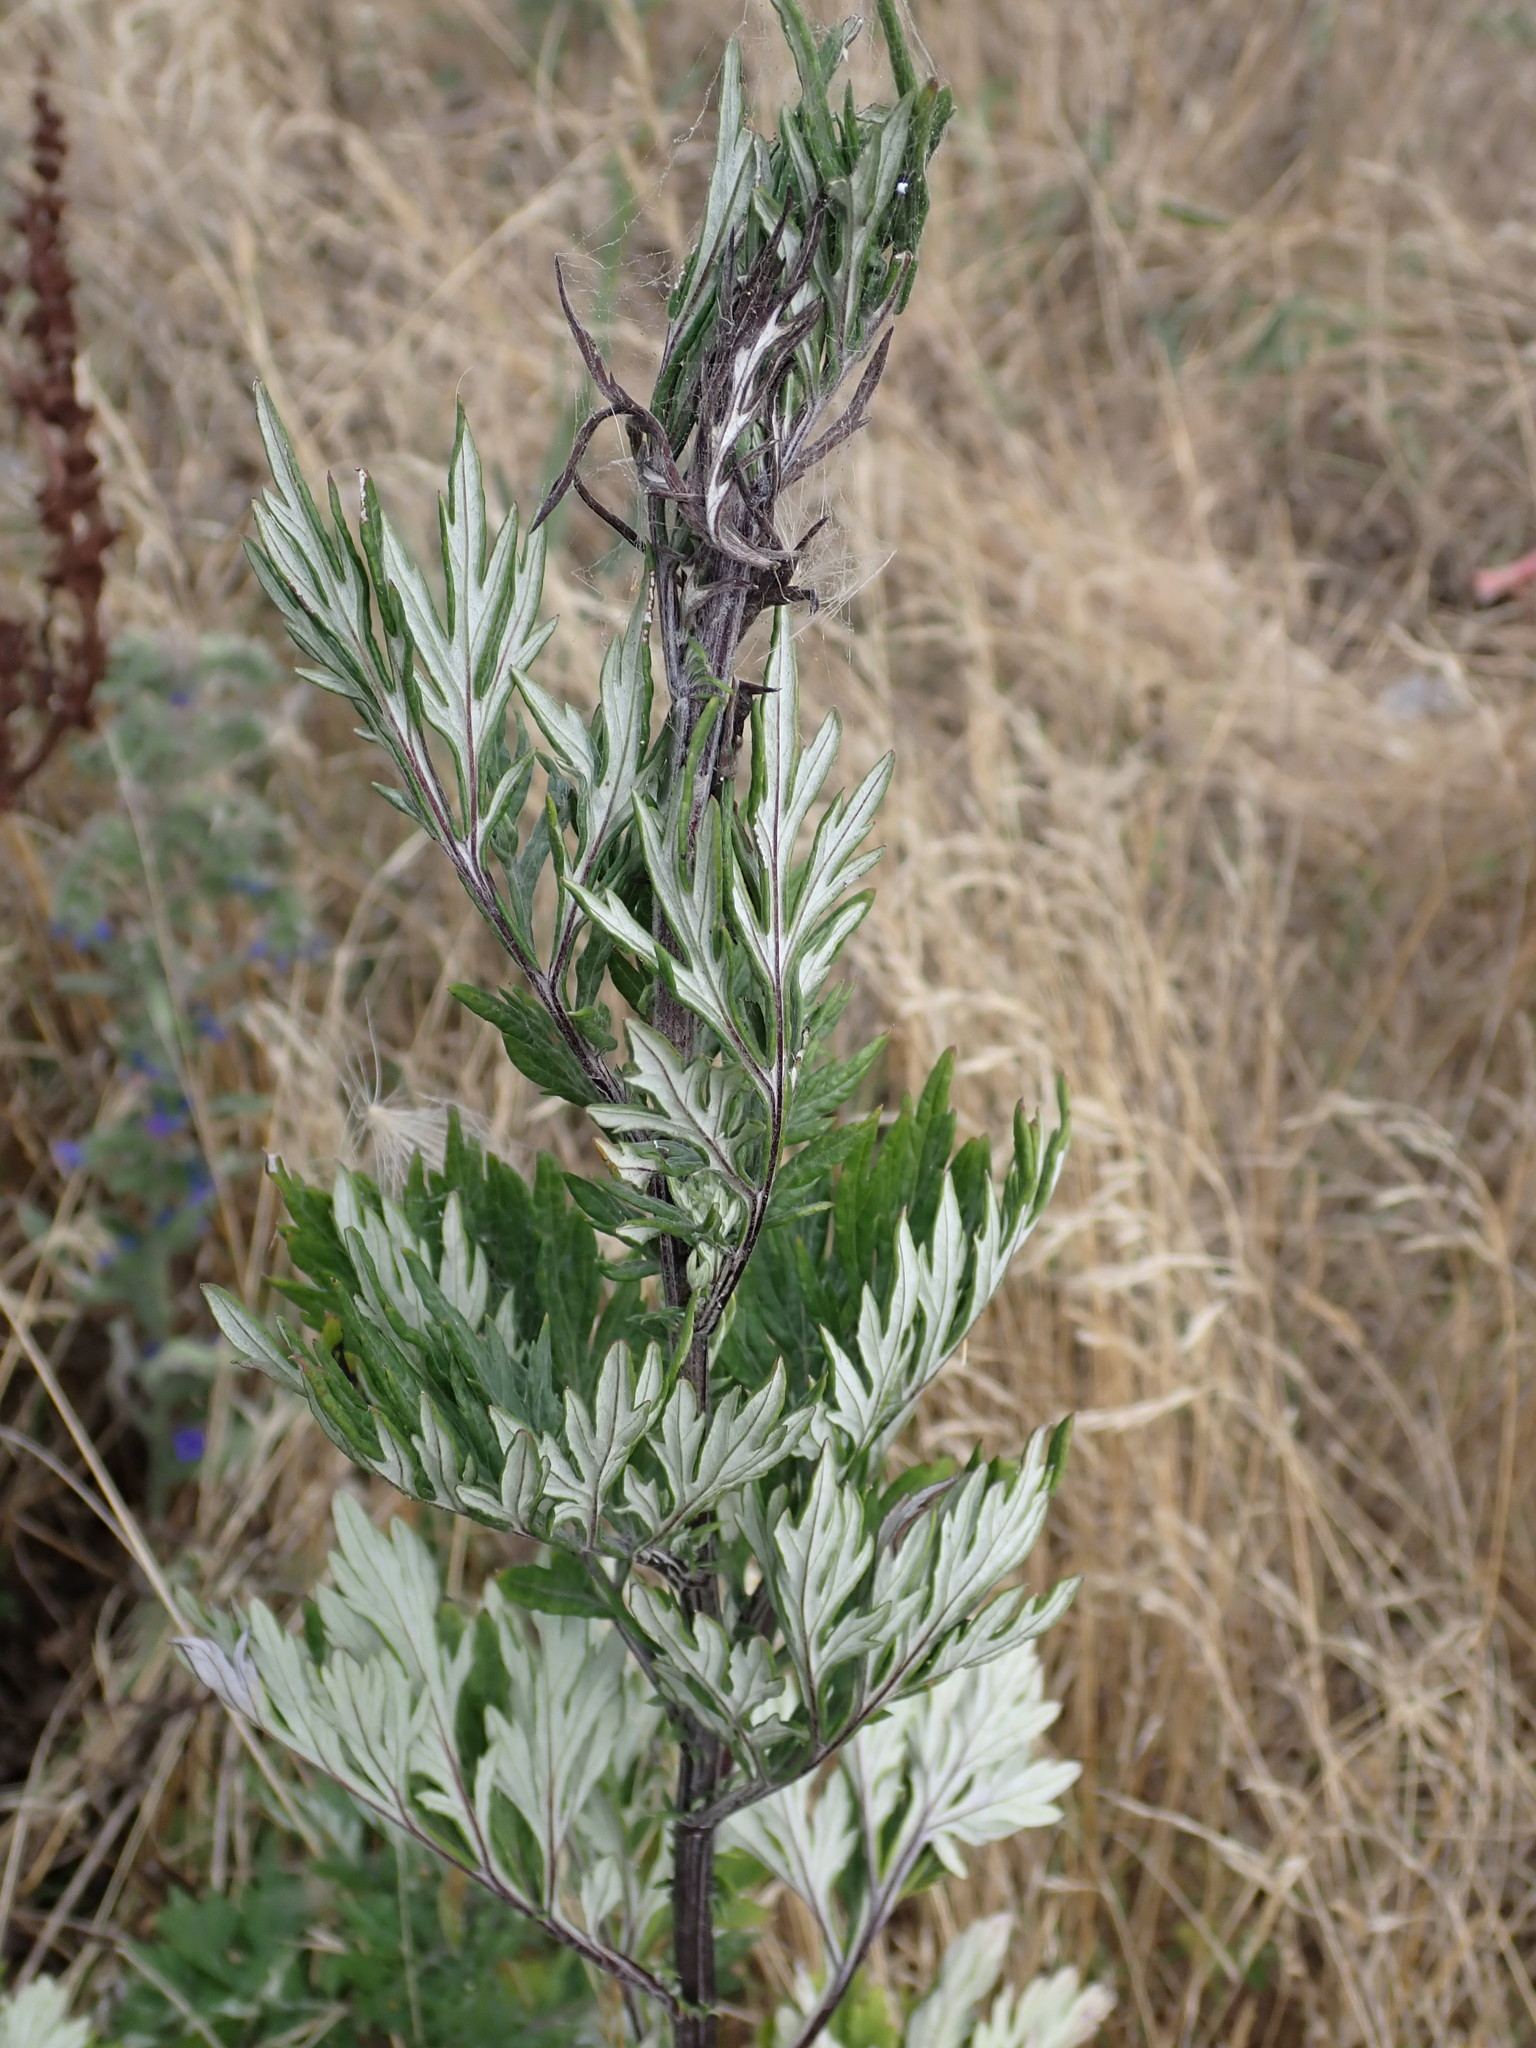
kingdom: Plantae
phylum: Tracheophyta
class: Magnoliopsida
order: Asterales
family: Asteraceae
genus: Artemisia
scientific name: Artemisia vulgaris
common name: Mugwort
